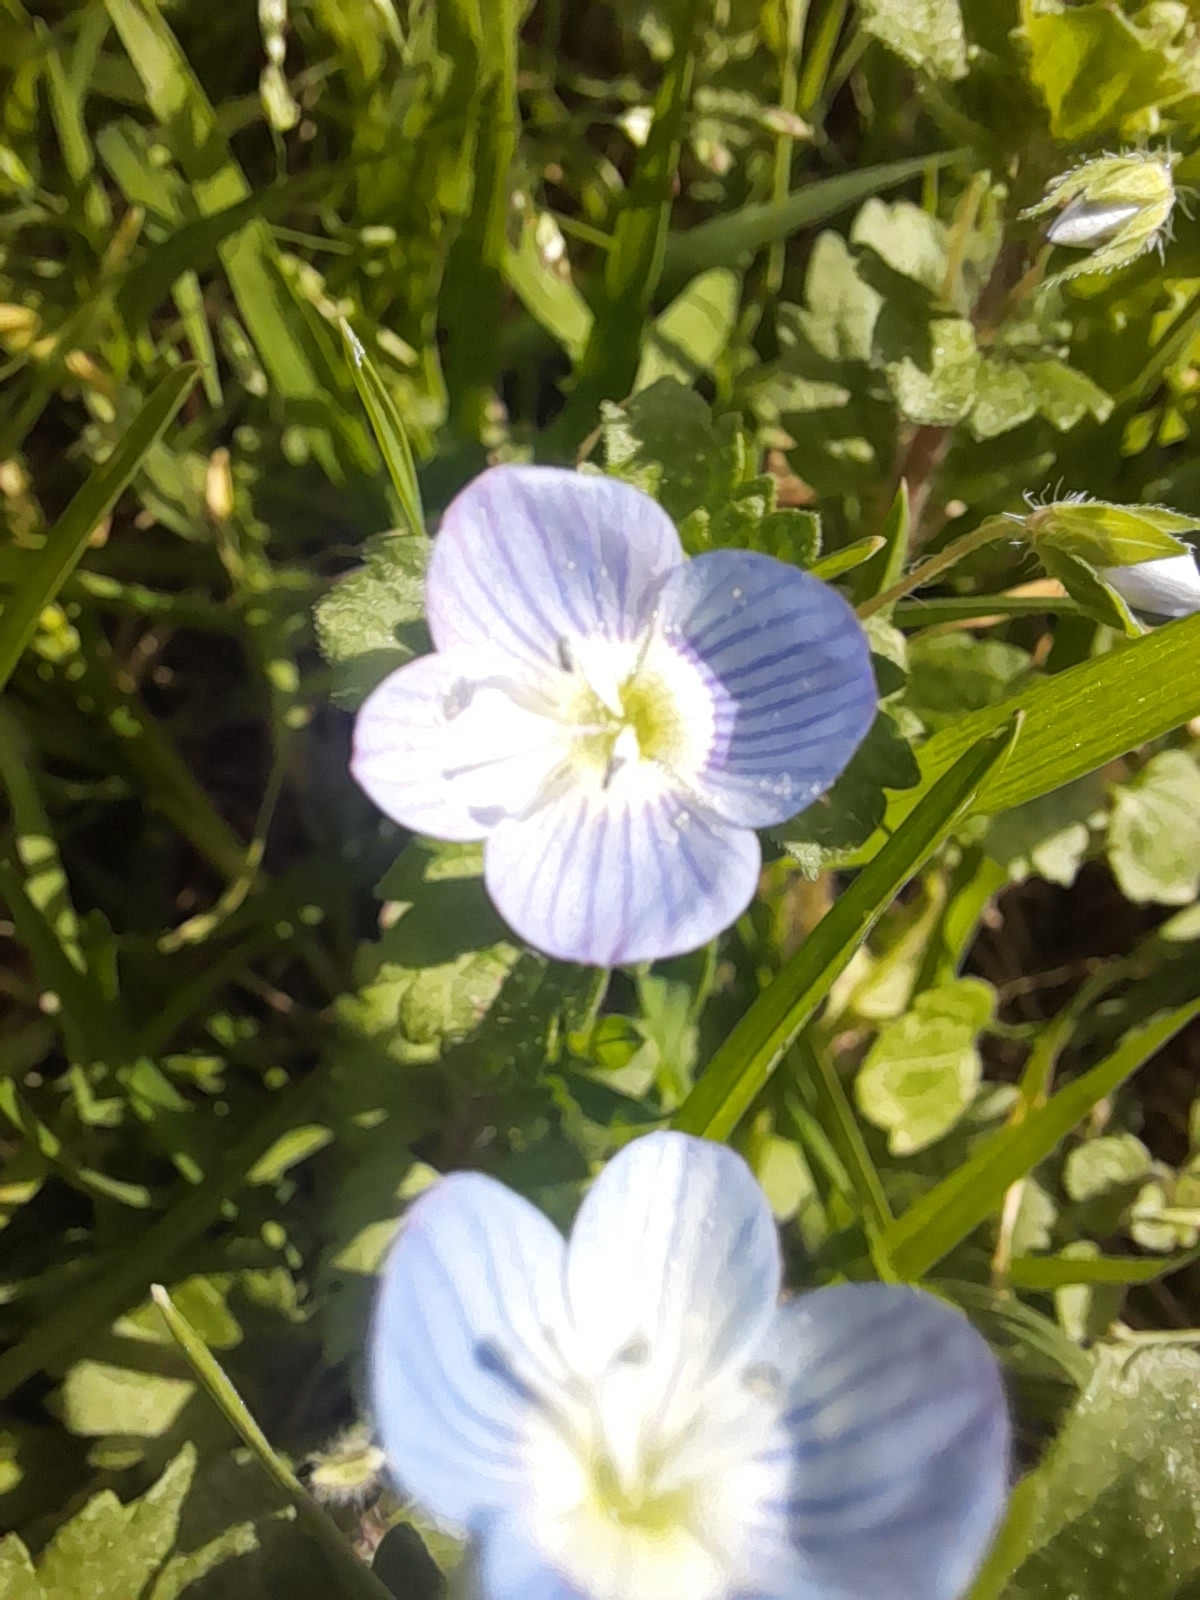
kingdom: Plantae
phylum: Tracheophyta
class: Magnoliopsida
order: Lamiales
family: Plantaginaceae
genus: Veronica
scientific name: Veronica persica
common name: Common field-speedwell
